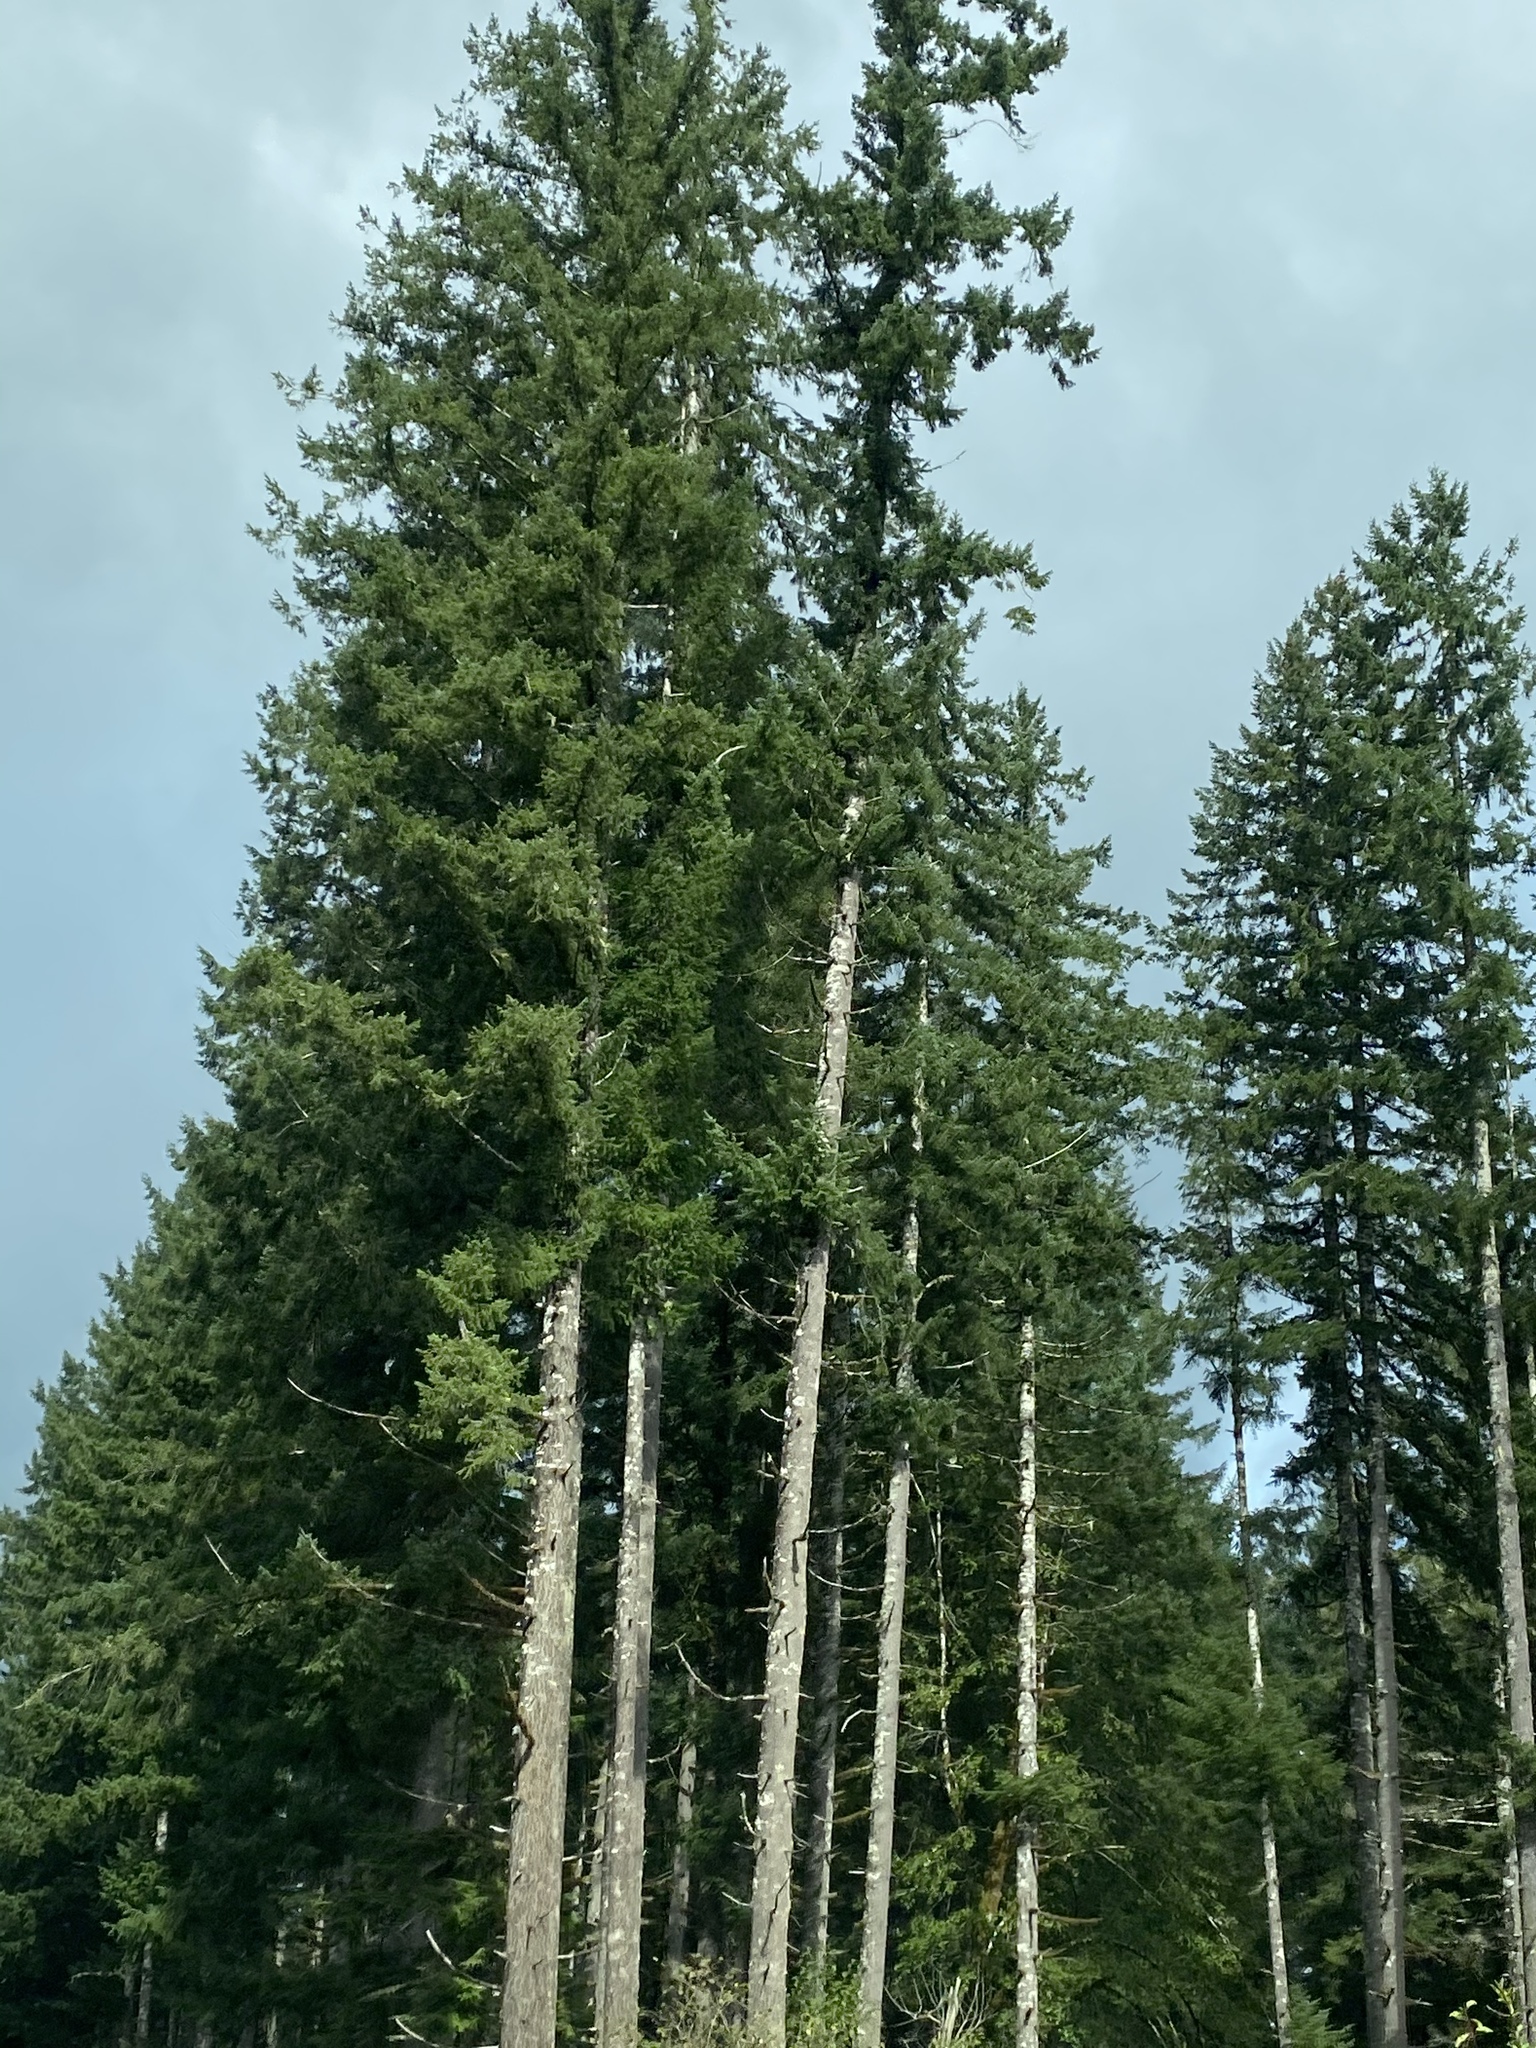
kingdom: Plantae
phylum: Tracheophyta
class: Pinopsida
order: Pinales
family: Pinaceae
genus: Pseudotsuga
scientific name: Pseudotsuga menziesii
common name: Douglas fir
